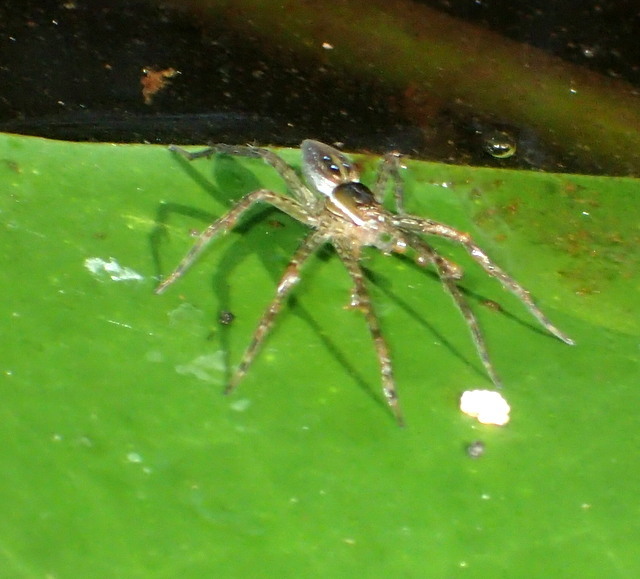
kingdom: Animalia
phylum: Arthropoda
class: Arachnida
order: Araneae
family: Pisauridae
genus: Dolomedes
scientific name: Dolomedes triton
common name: Six-spotted fishing spider
